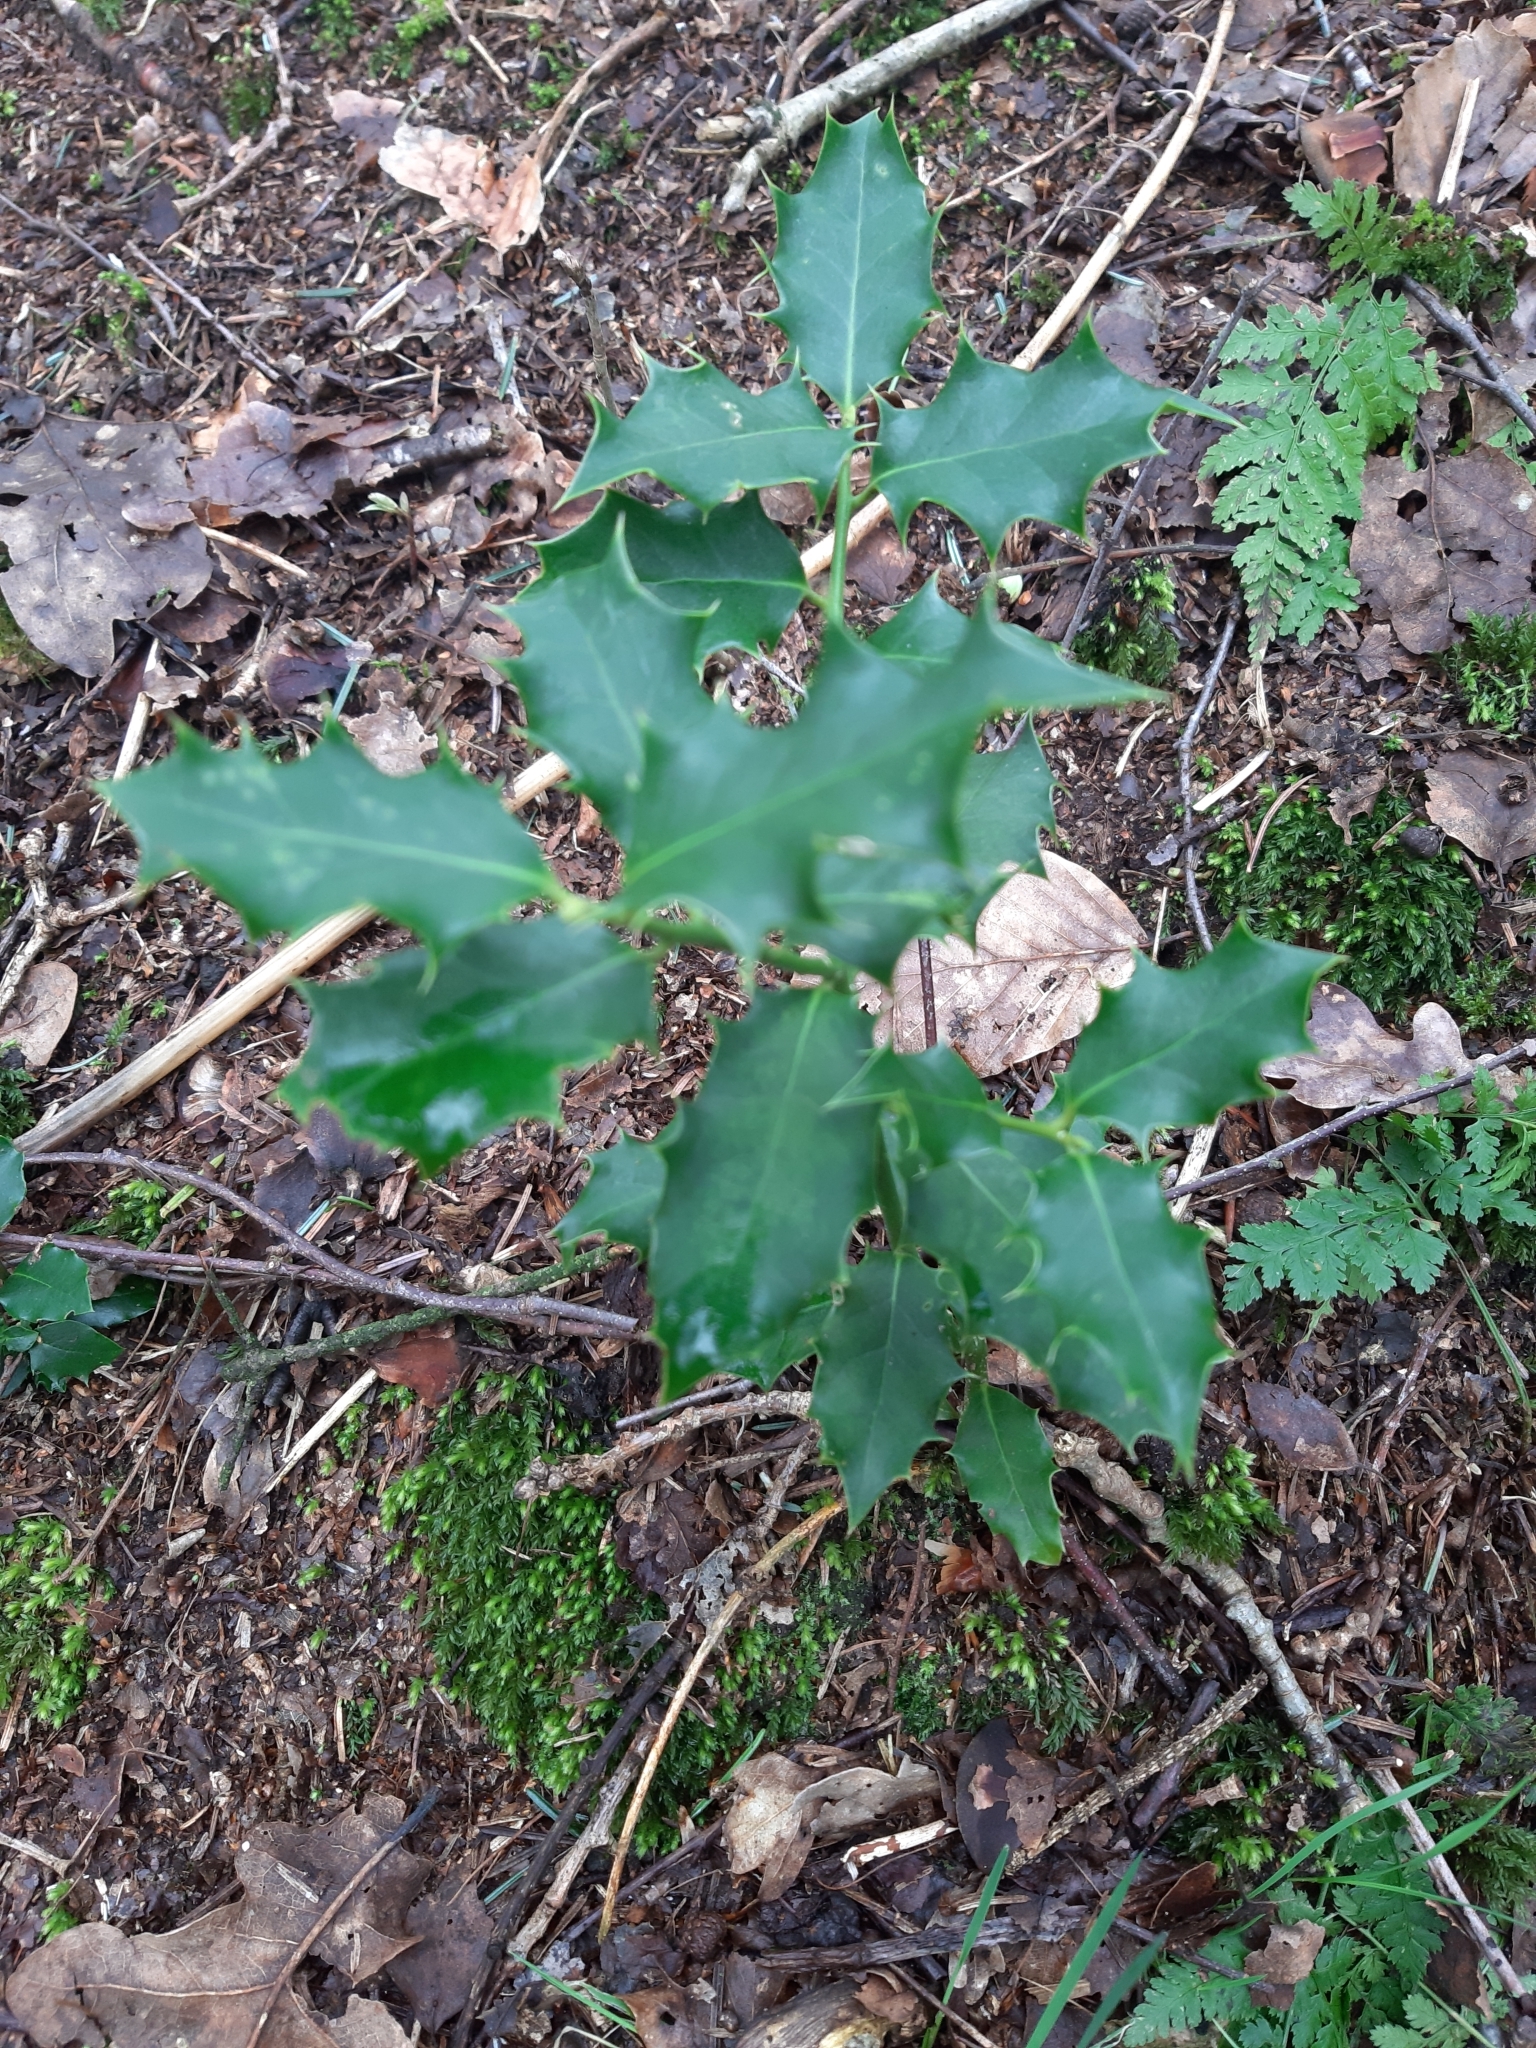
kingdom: Plantae
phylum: Tracheophyta
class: Magnoliopsida
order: Aquifoliales
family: Aquifoliaceae
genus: Ilex
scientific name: Ilex aquifolium
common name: English holly
